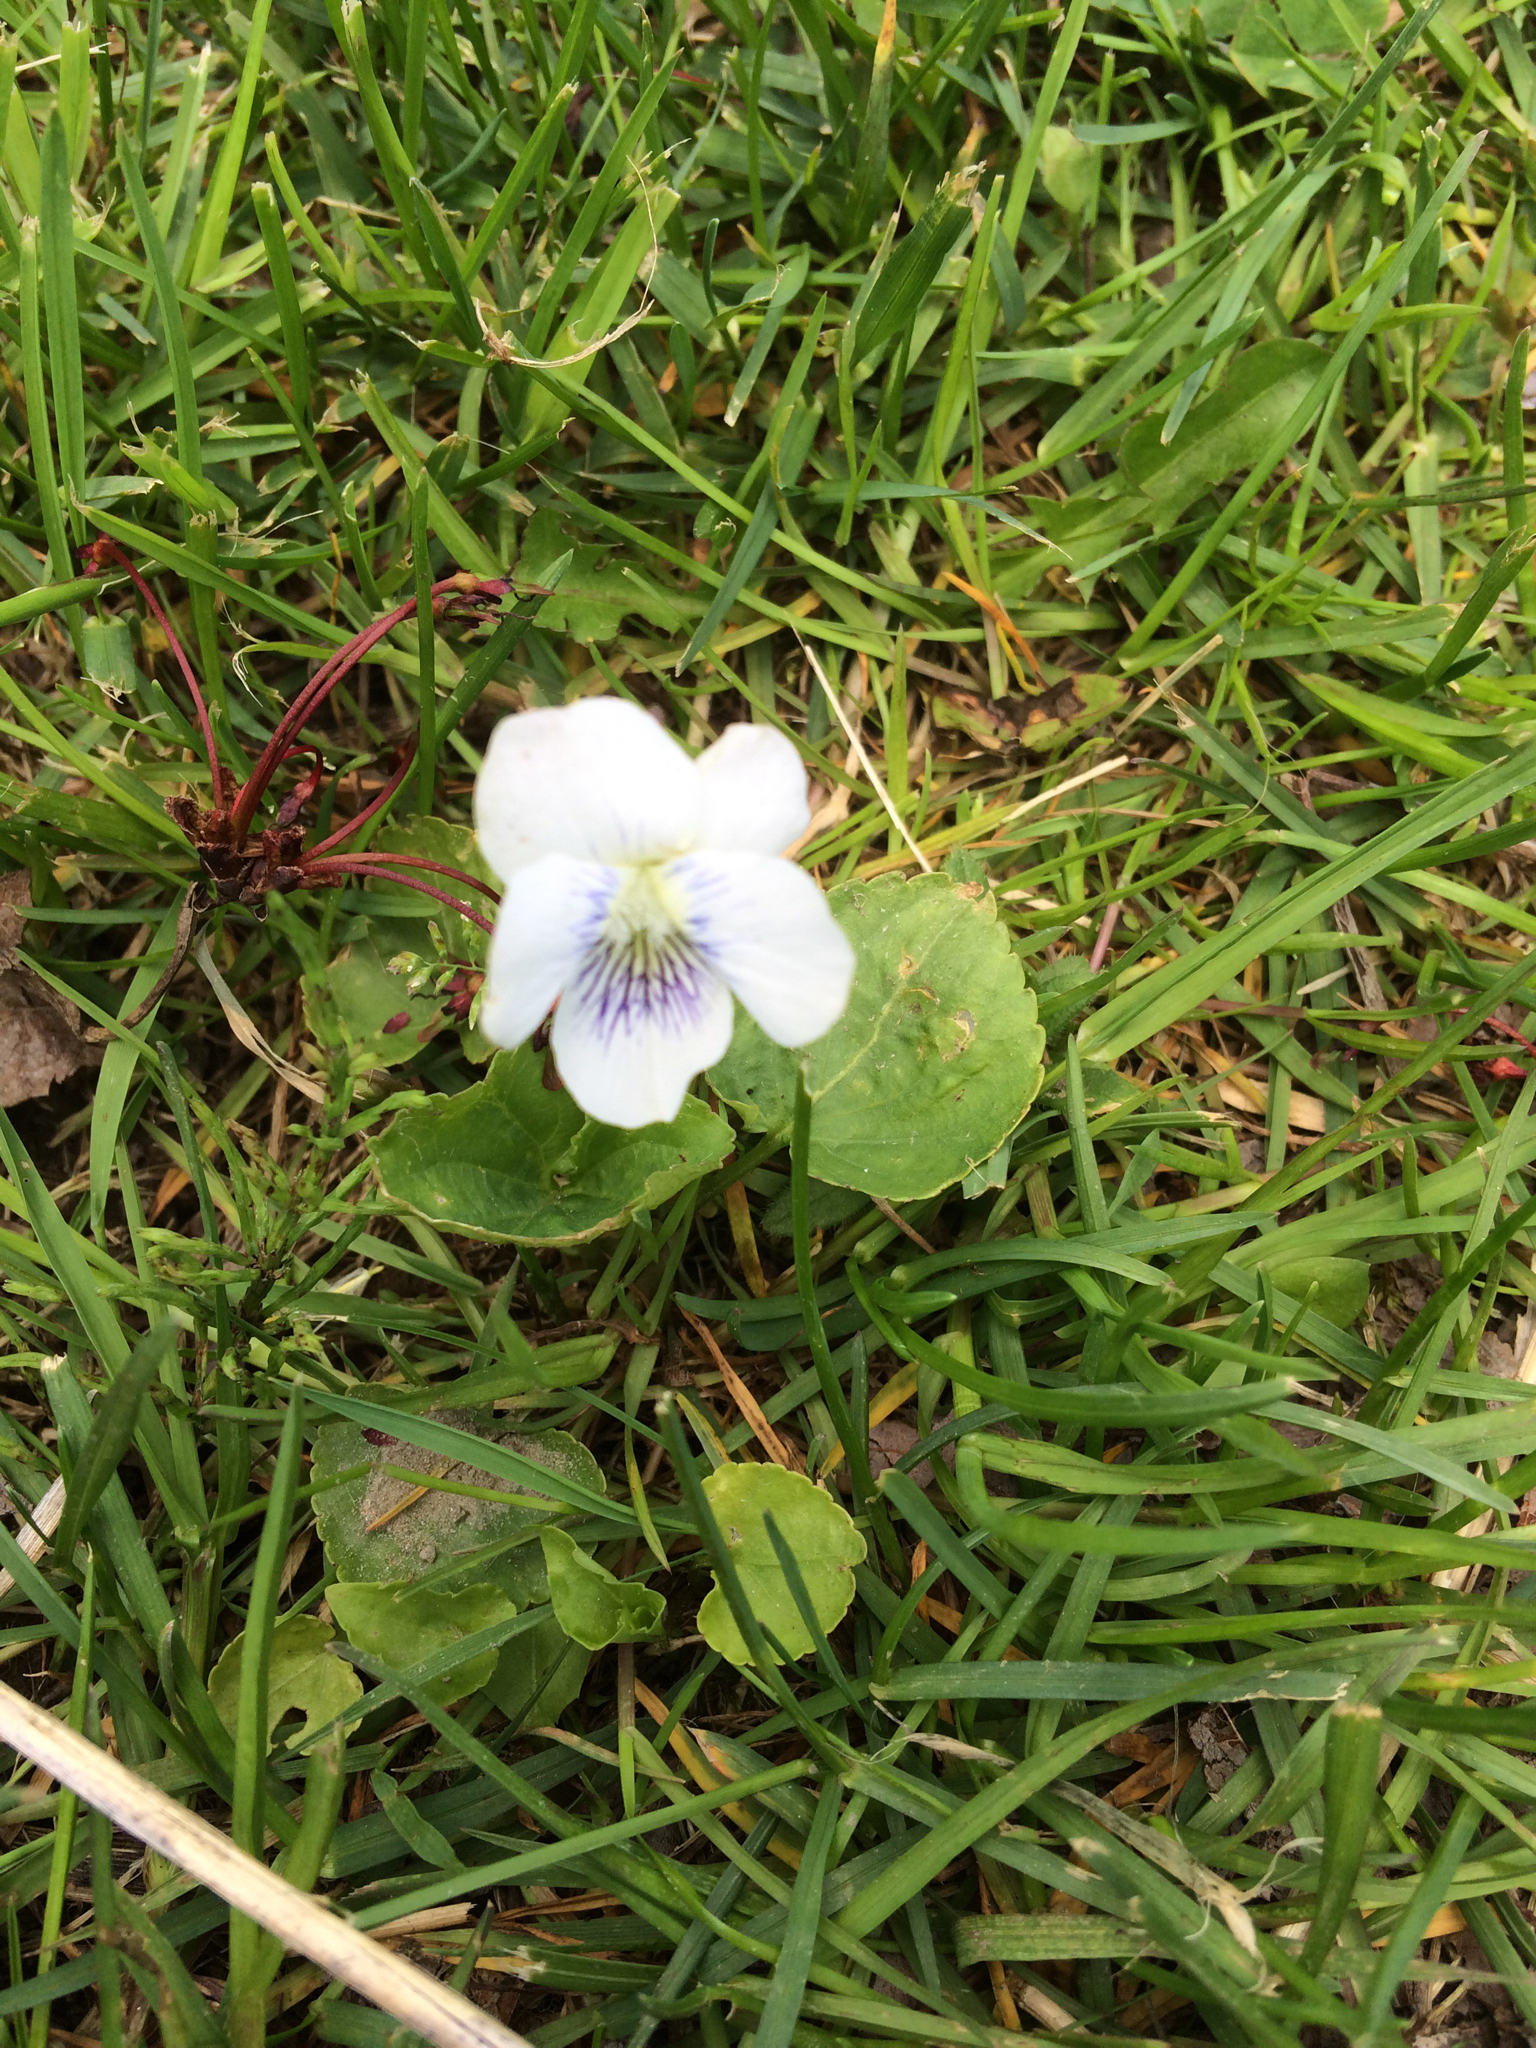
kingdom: Plantae
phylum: Tracheophyta
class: Magnoliopsida
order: Malpighiales
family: Violaceae
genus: Viola
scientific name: Viola sororia
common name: Dooryard violet
